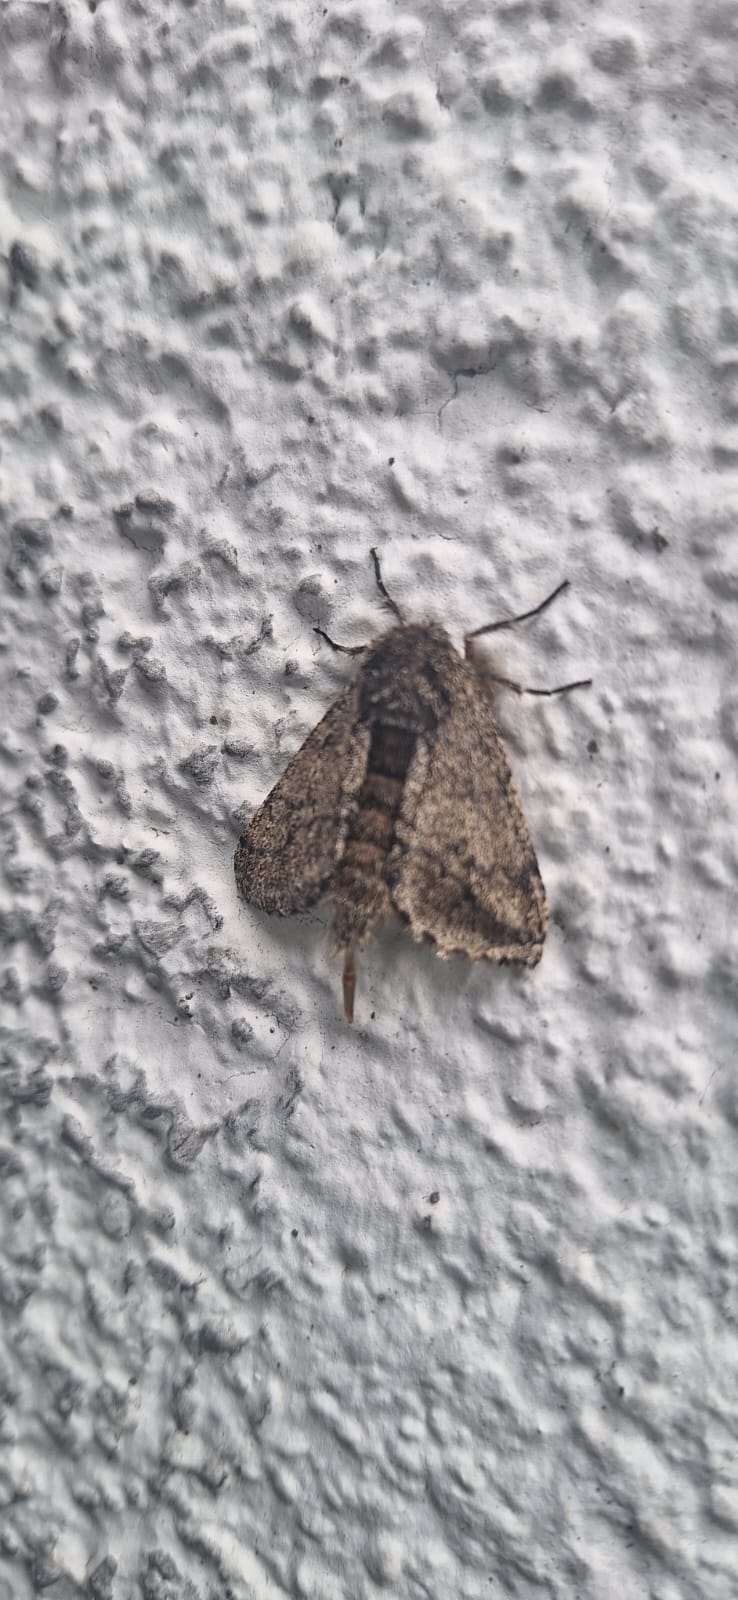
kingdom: Animalia
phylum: Arthropoda
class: Insecta
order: Lepidoptera
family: Geometridae
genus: Lycia
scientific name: Lycia hirtaria
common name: Brindled beauty
